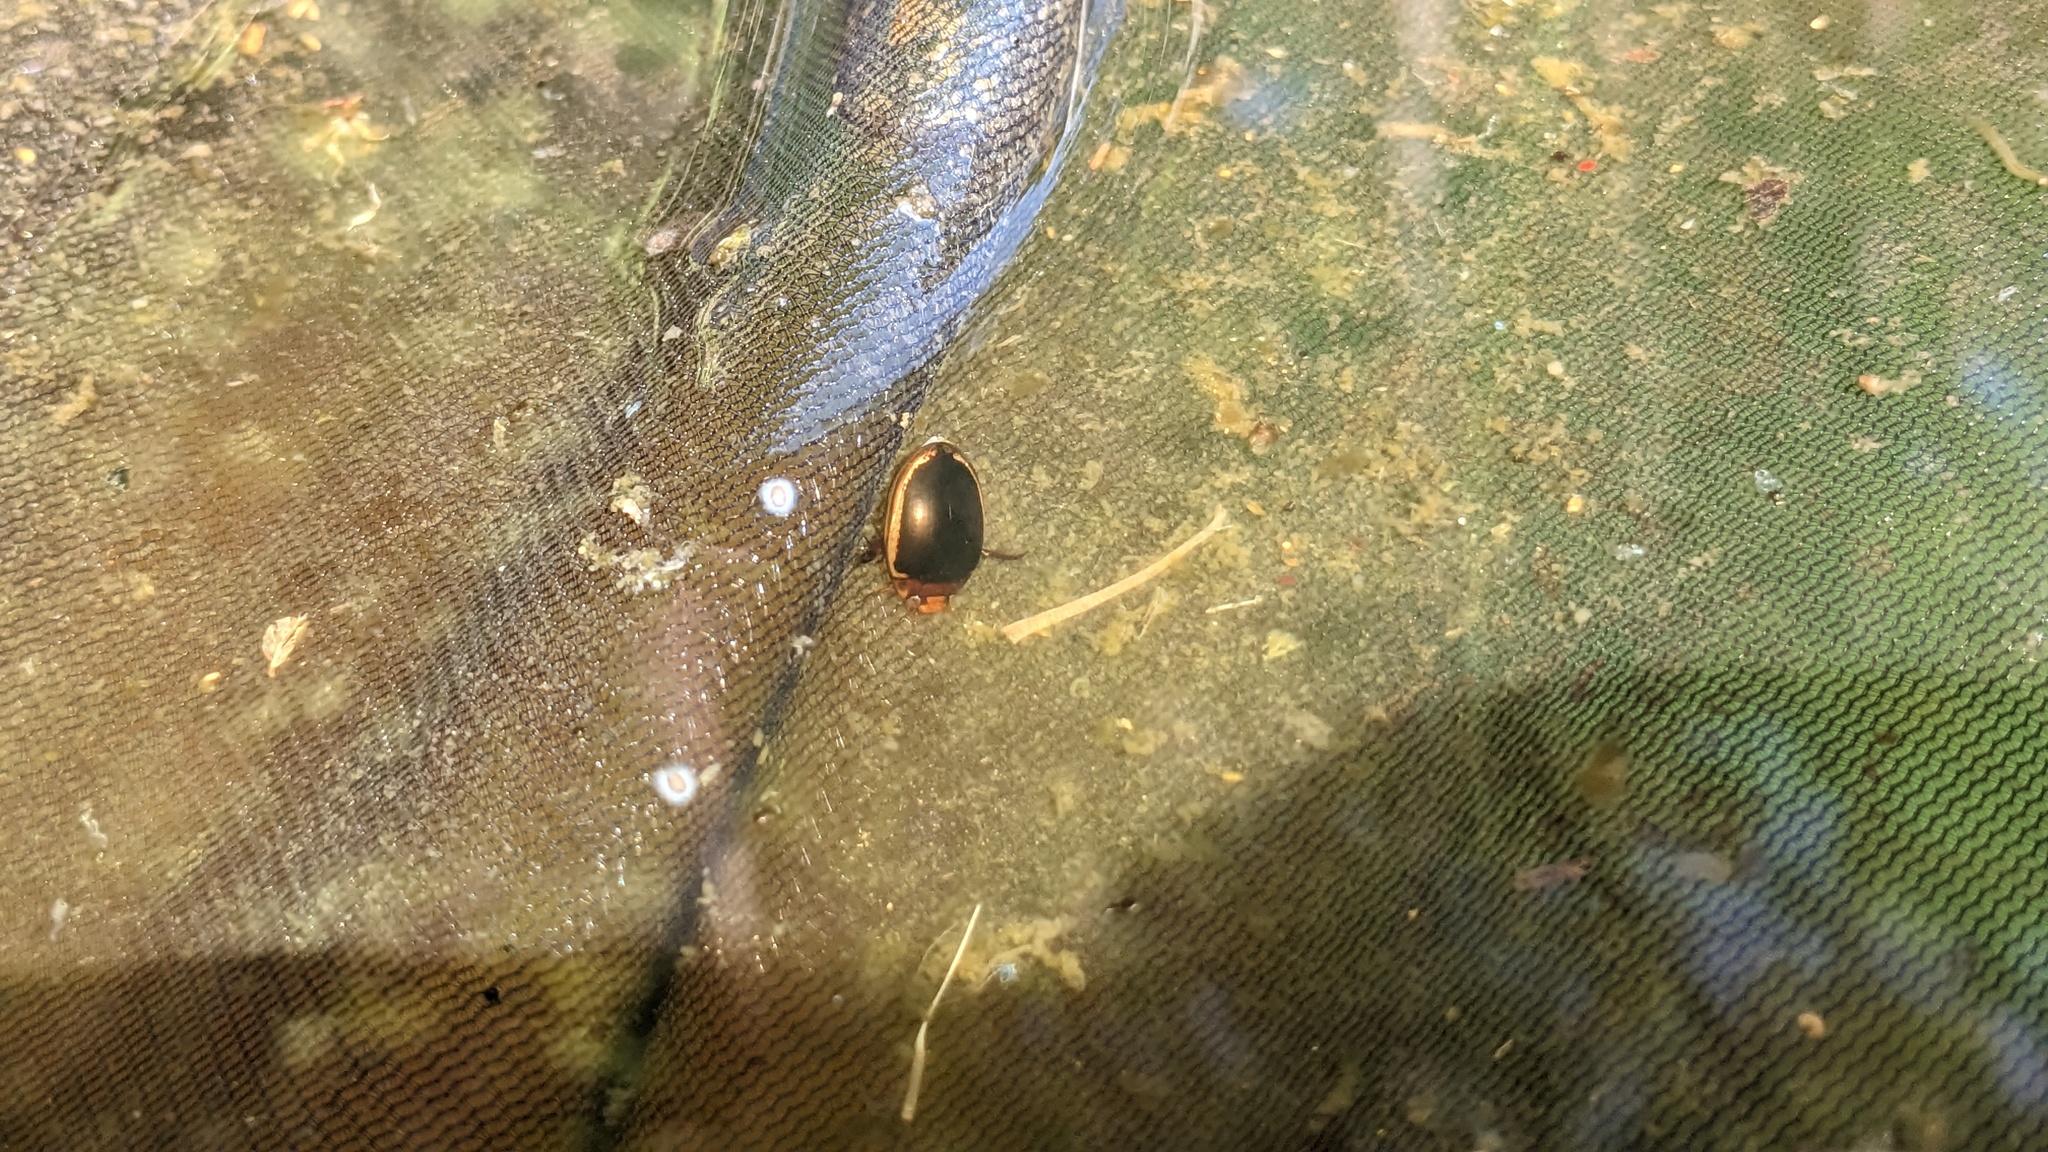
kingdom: Animalia
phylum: Arthropoda
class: Insecta
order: Coleoptera
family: Dytiscidae
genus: Hydaticus
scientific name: Hydaticus bimarginatus
